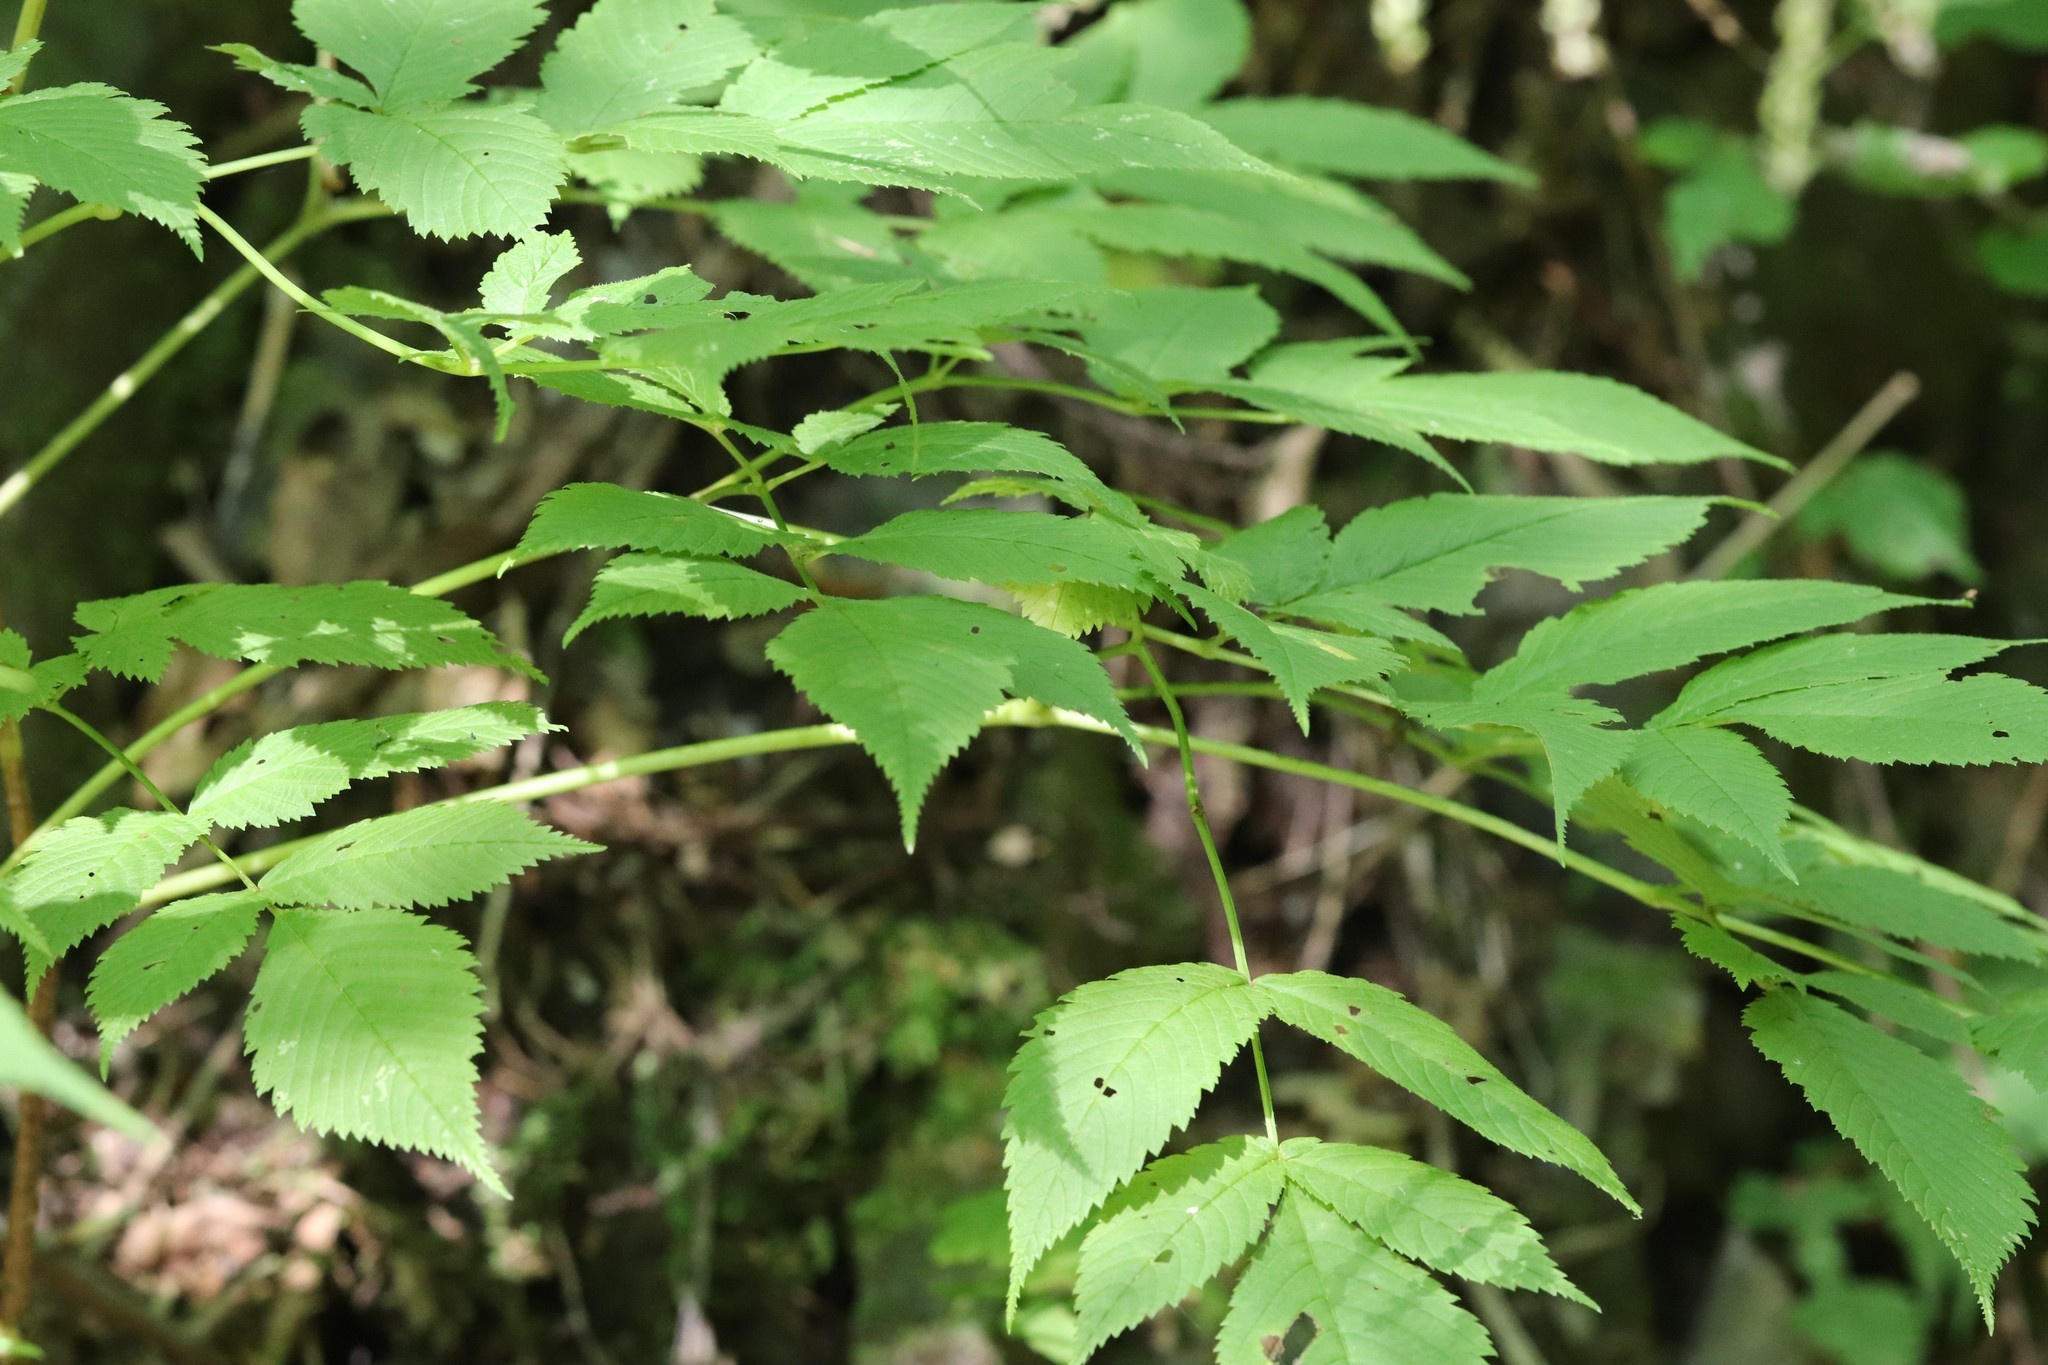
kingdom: Plantae
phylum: Tracheophyta
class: Magnoliopsida
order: Rosales
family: Rosaceae
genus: Aruncus
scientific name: Aruncus dioicus
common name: Buck's-beard
